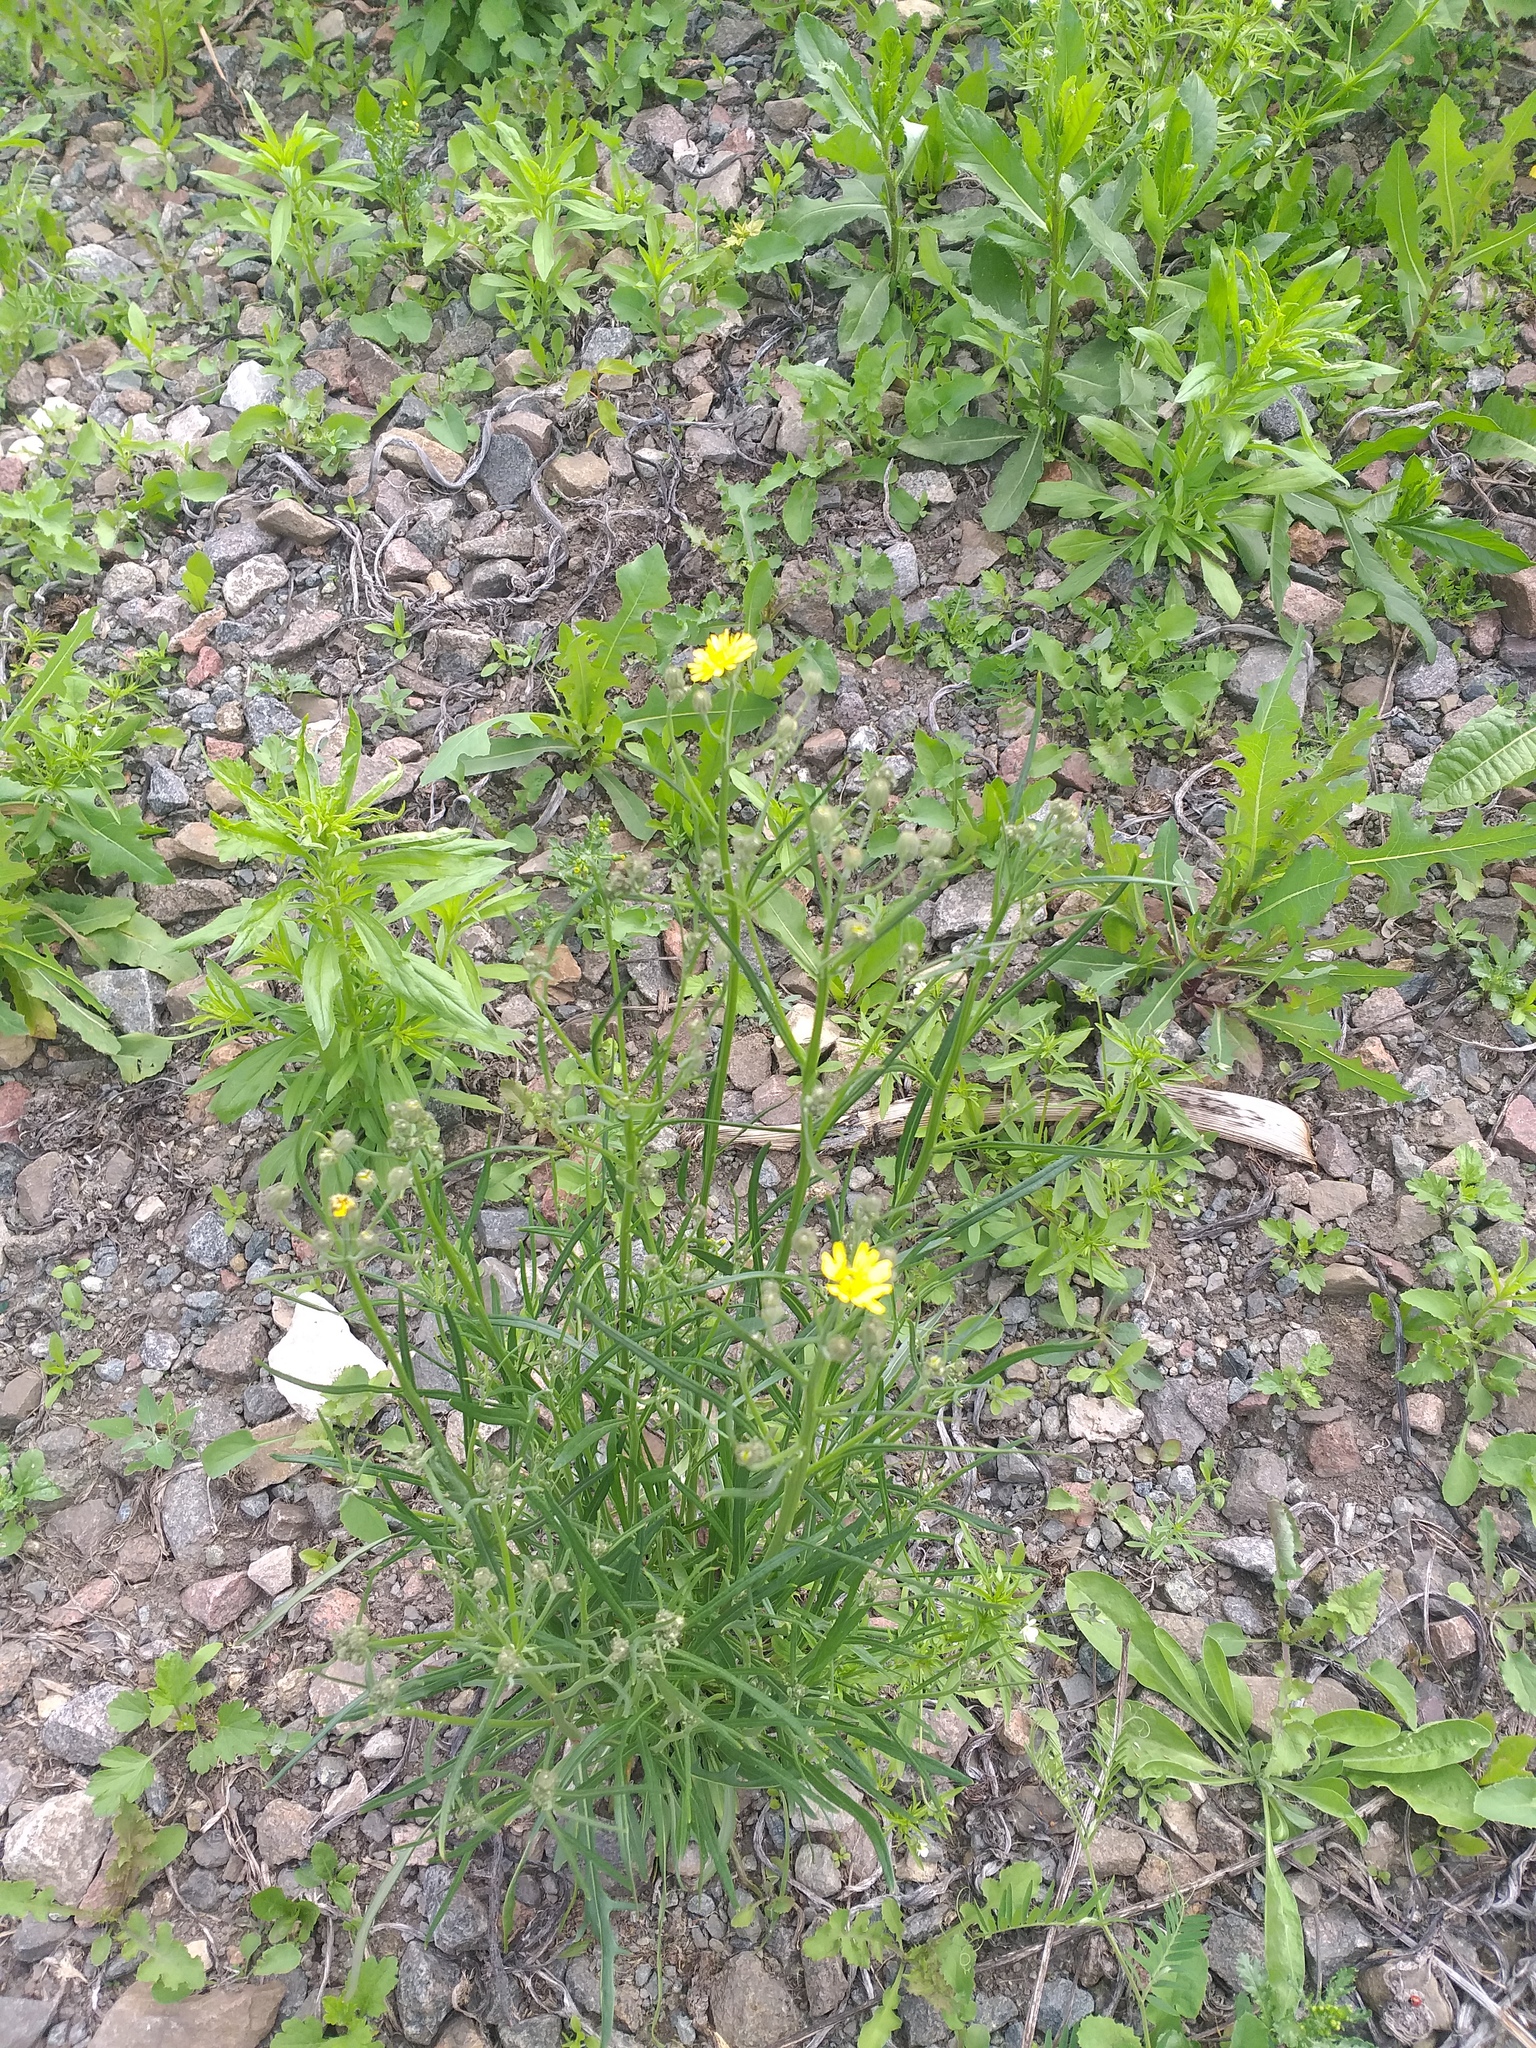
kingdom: Plantae
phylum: Tracheophyta
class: Magnoliopsida
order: Asterales
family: Asteraceae
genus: Crepis
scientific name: Crepis tectorum
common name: Narrow-leaved hawk's-beard
